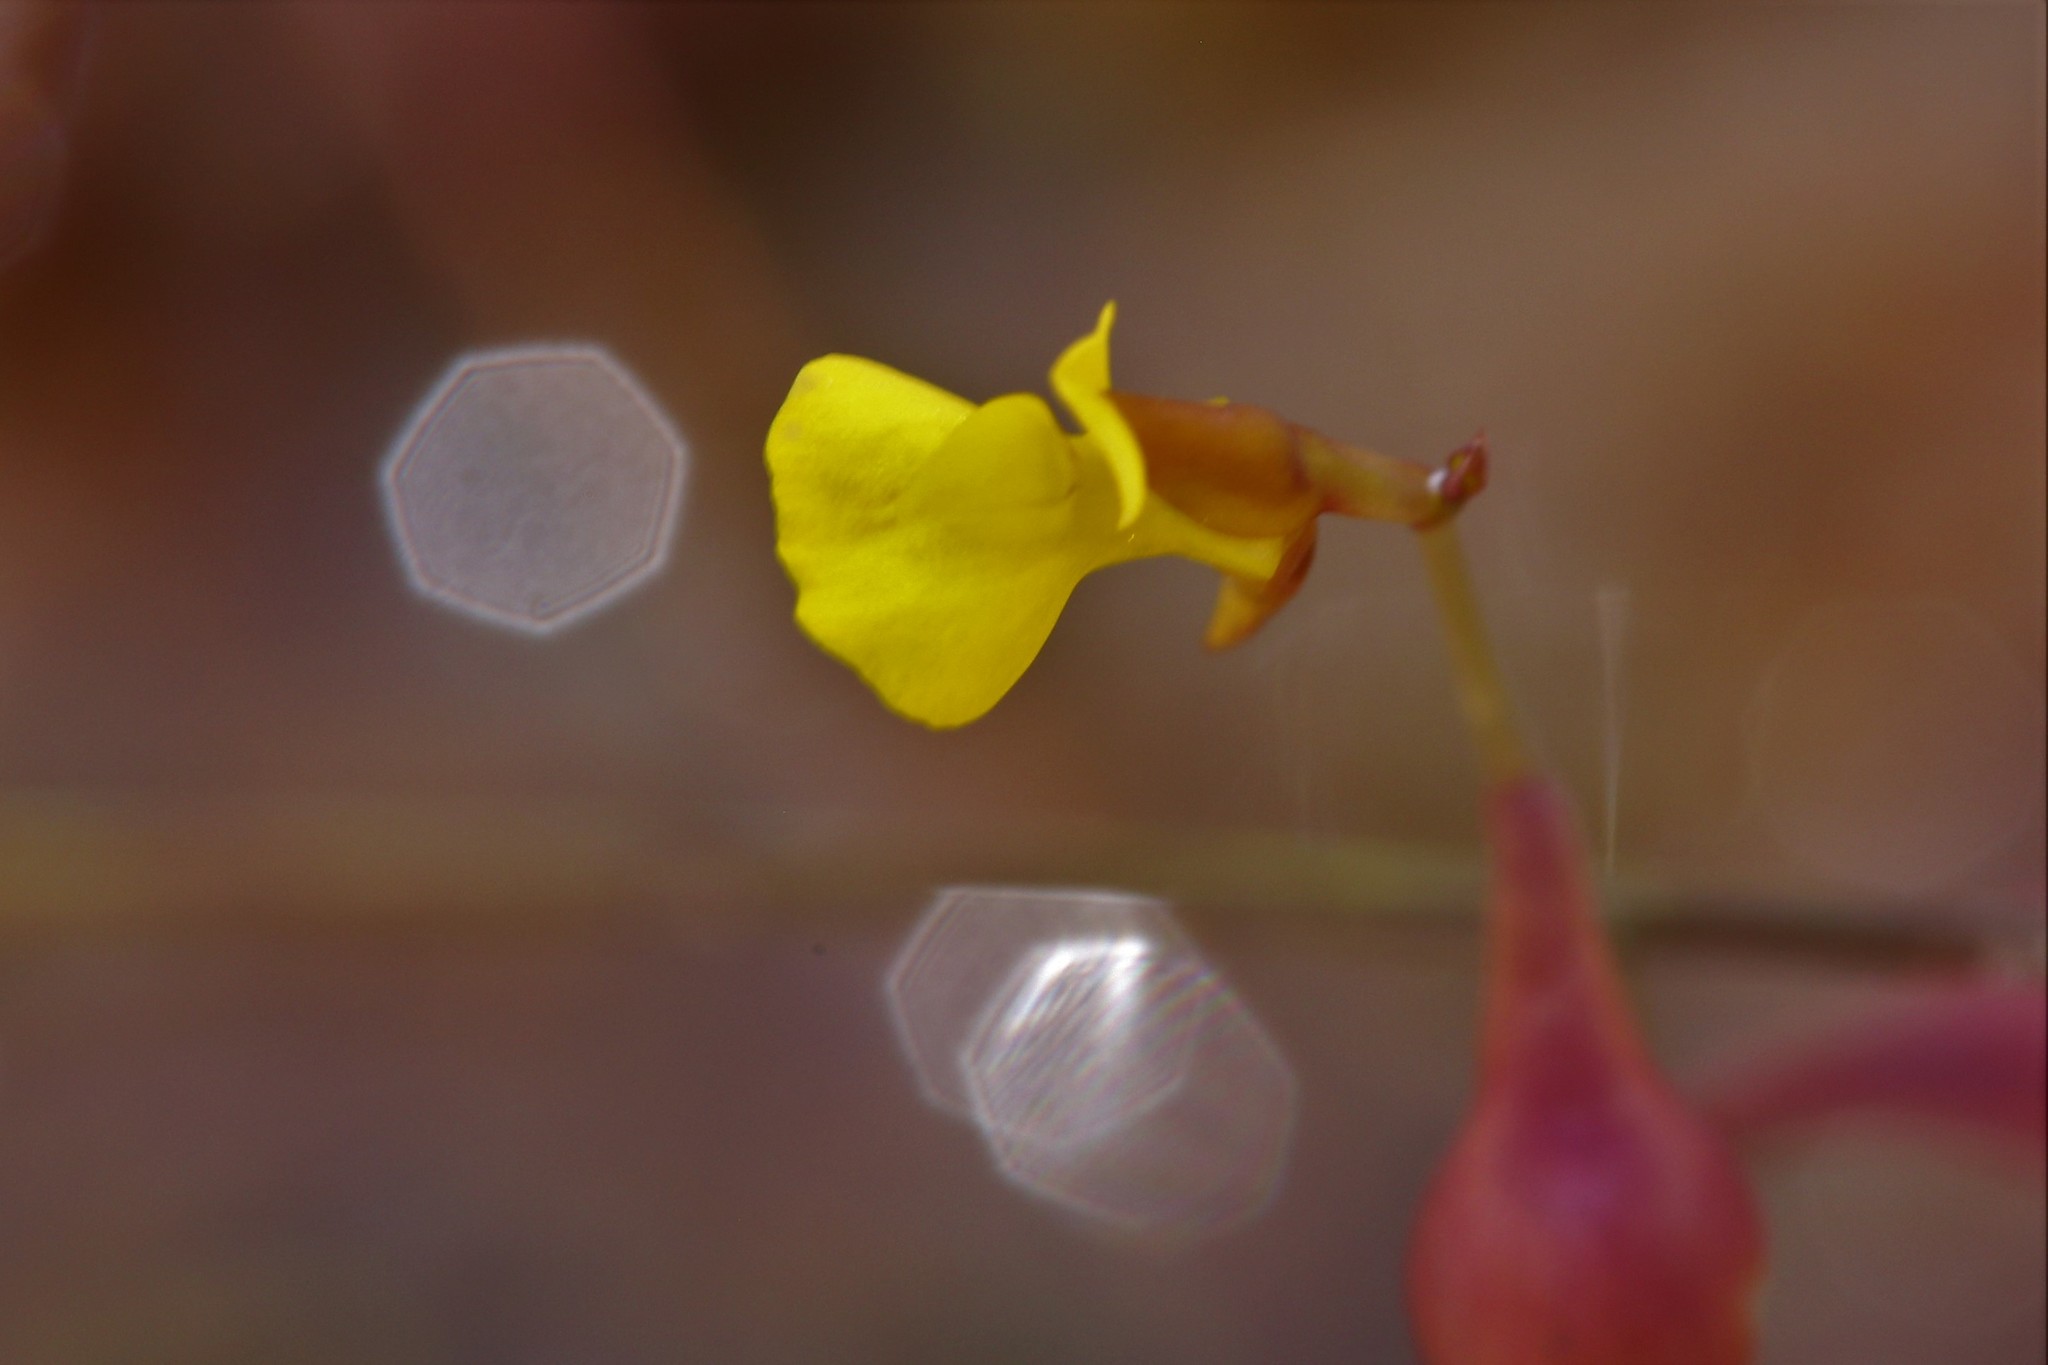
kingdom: Plantae
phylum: Tracheophyta
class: Magnoliopsida
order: Lamiales
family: Lentibulariaceae
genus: Utricularia
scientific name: Utricularia bifida
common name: Bifid bladderwort
